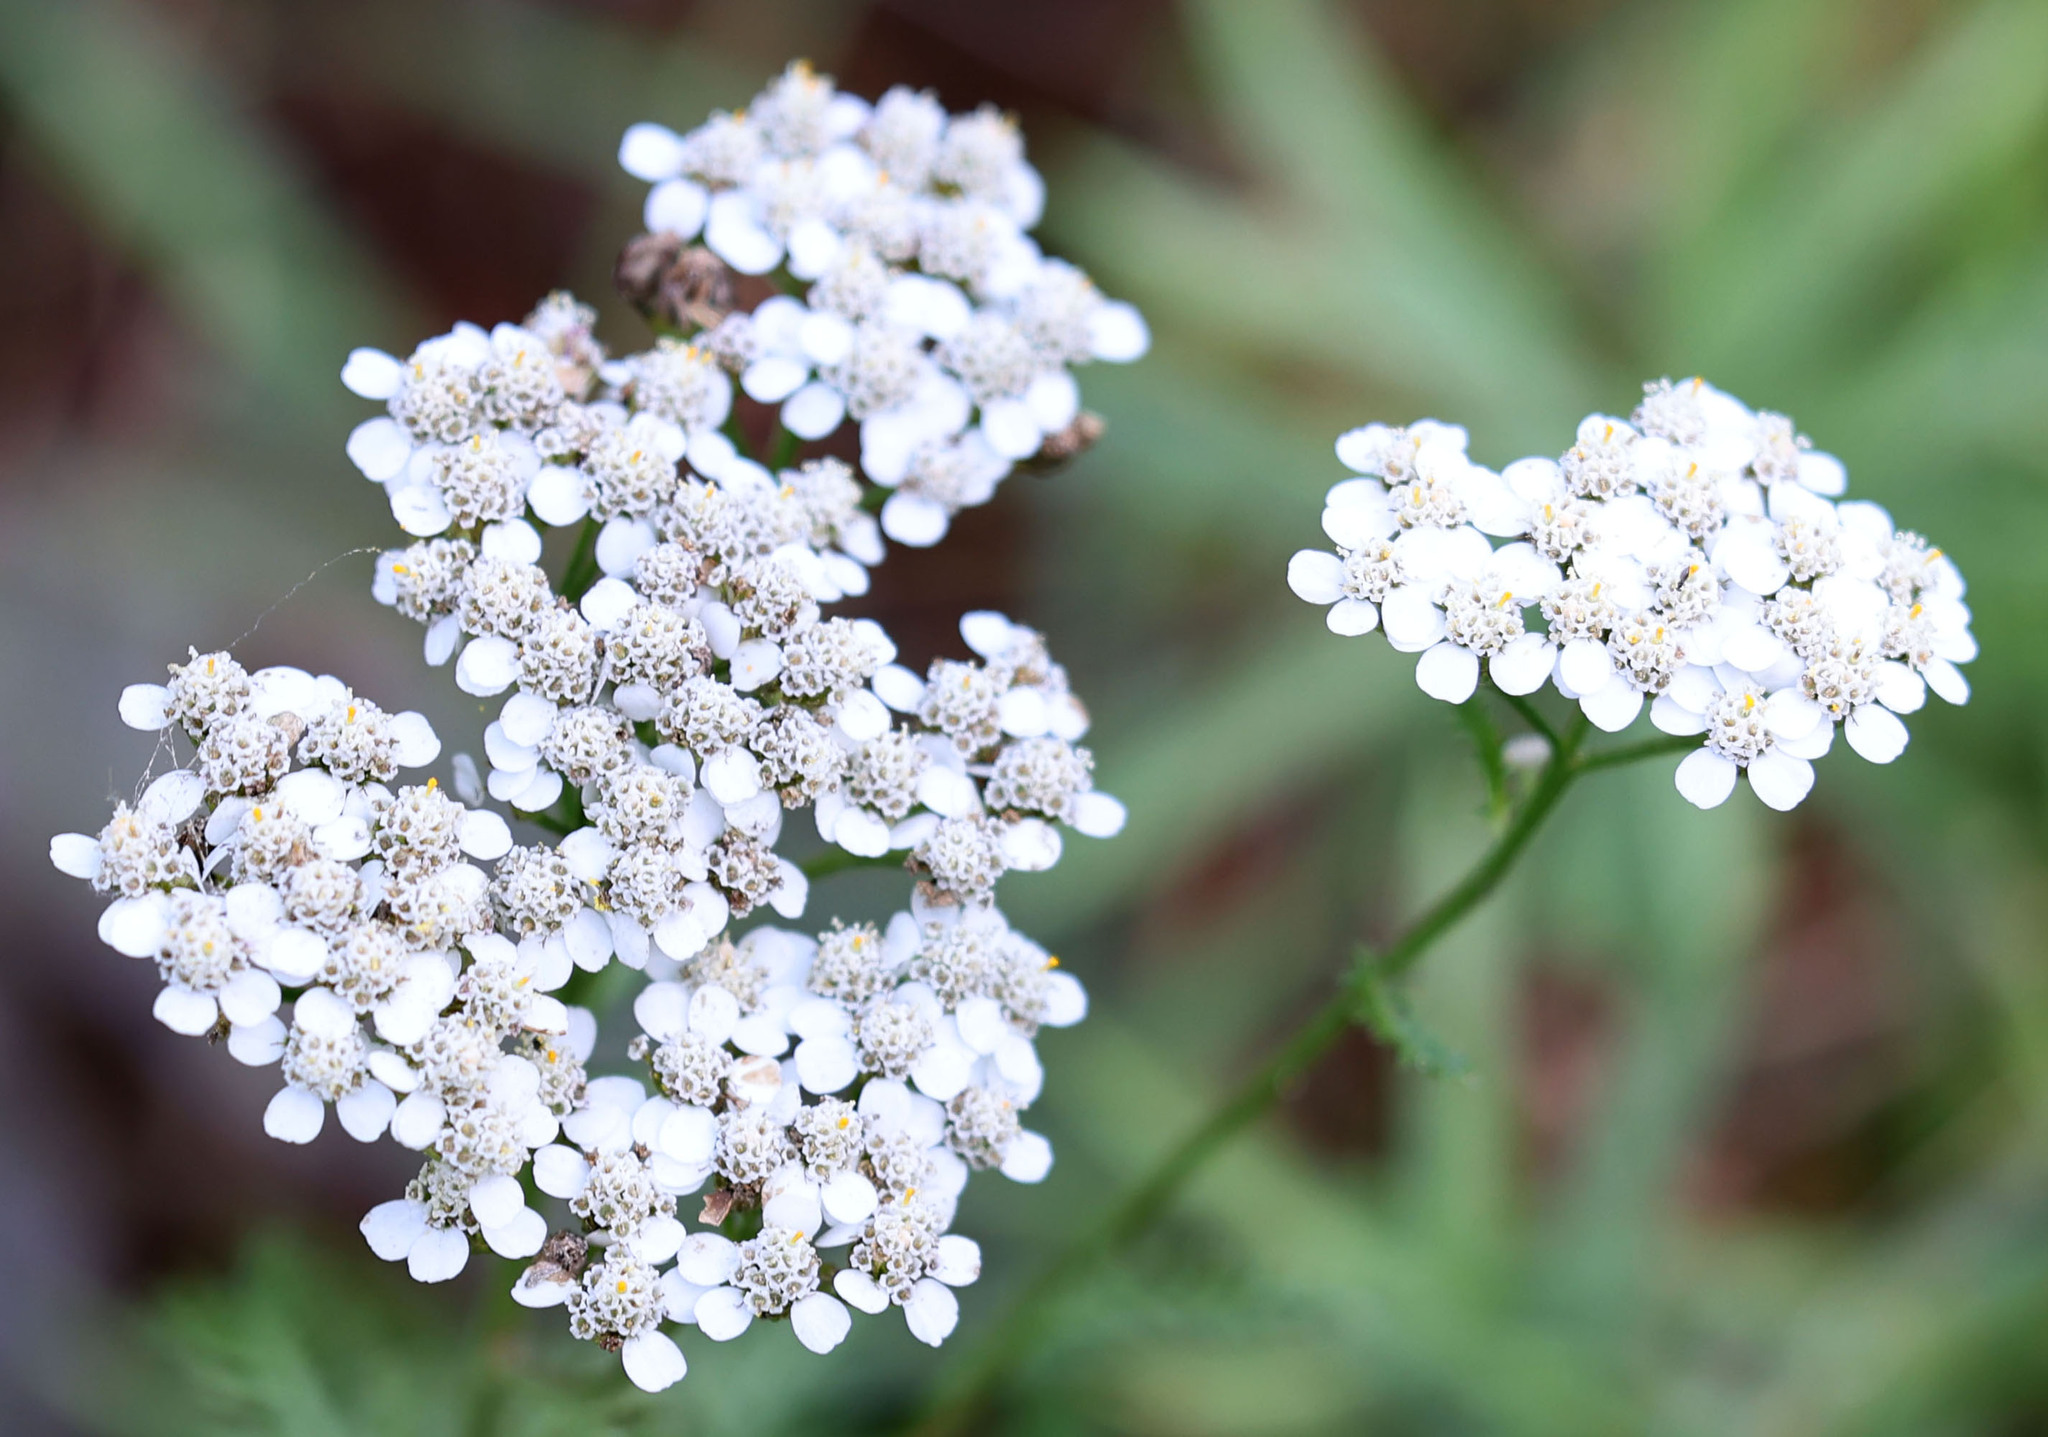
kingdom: Plantae
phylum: Tracheophyta
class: Magnoliopsida
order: Asterales
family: Asteraceae
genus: Achillea
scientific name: Achillea millefolium
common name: Yarrow
